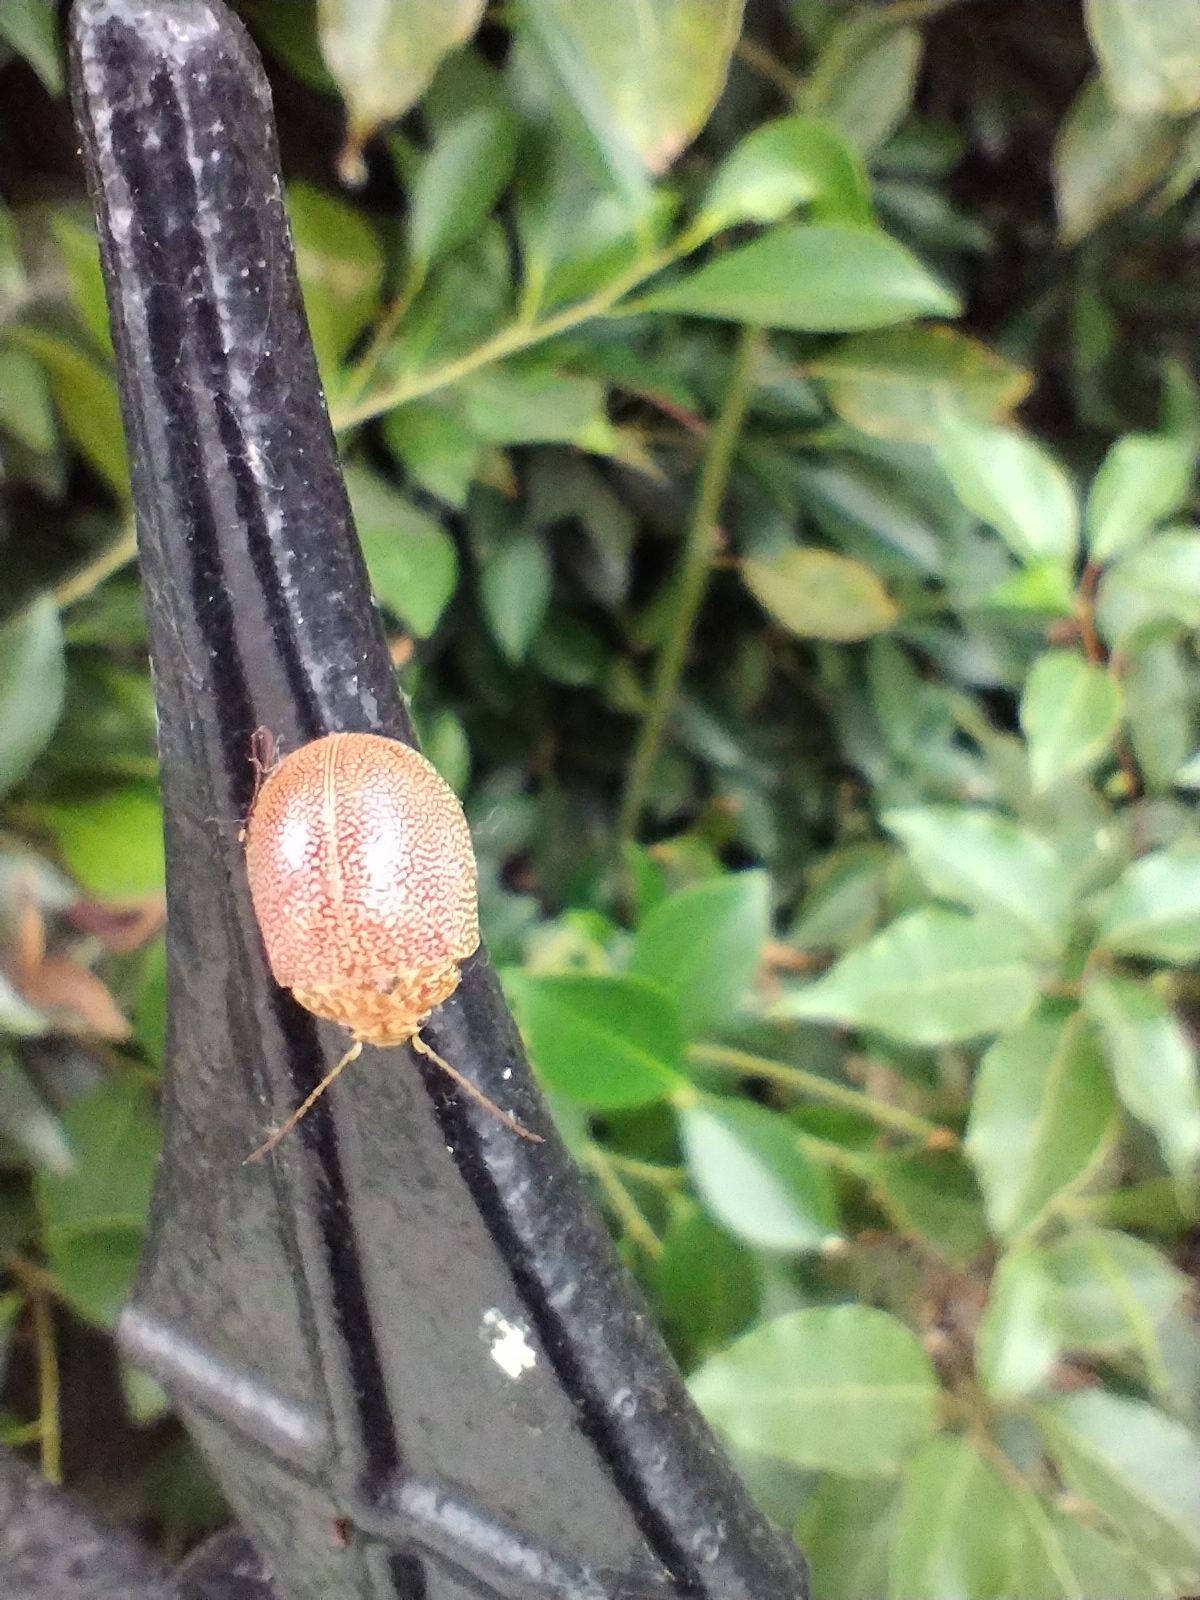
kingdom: Animalia
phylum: Arthropoda
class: Insecta
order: Coleoptera
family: Chrysomelidae
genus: Paropsis
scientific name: Paropsis
